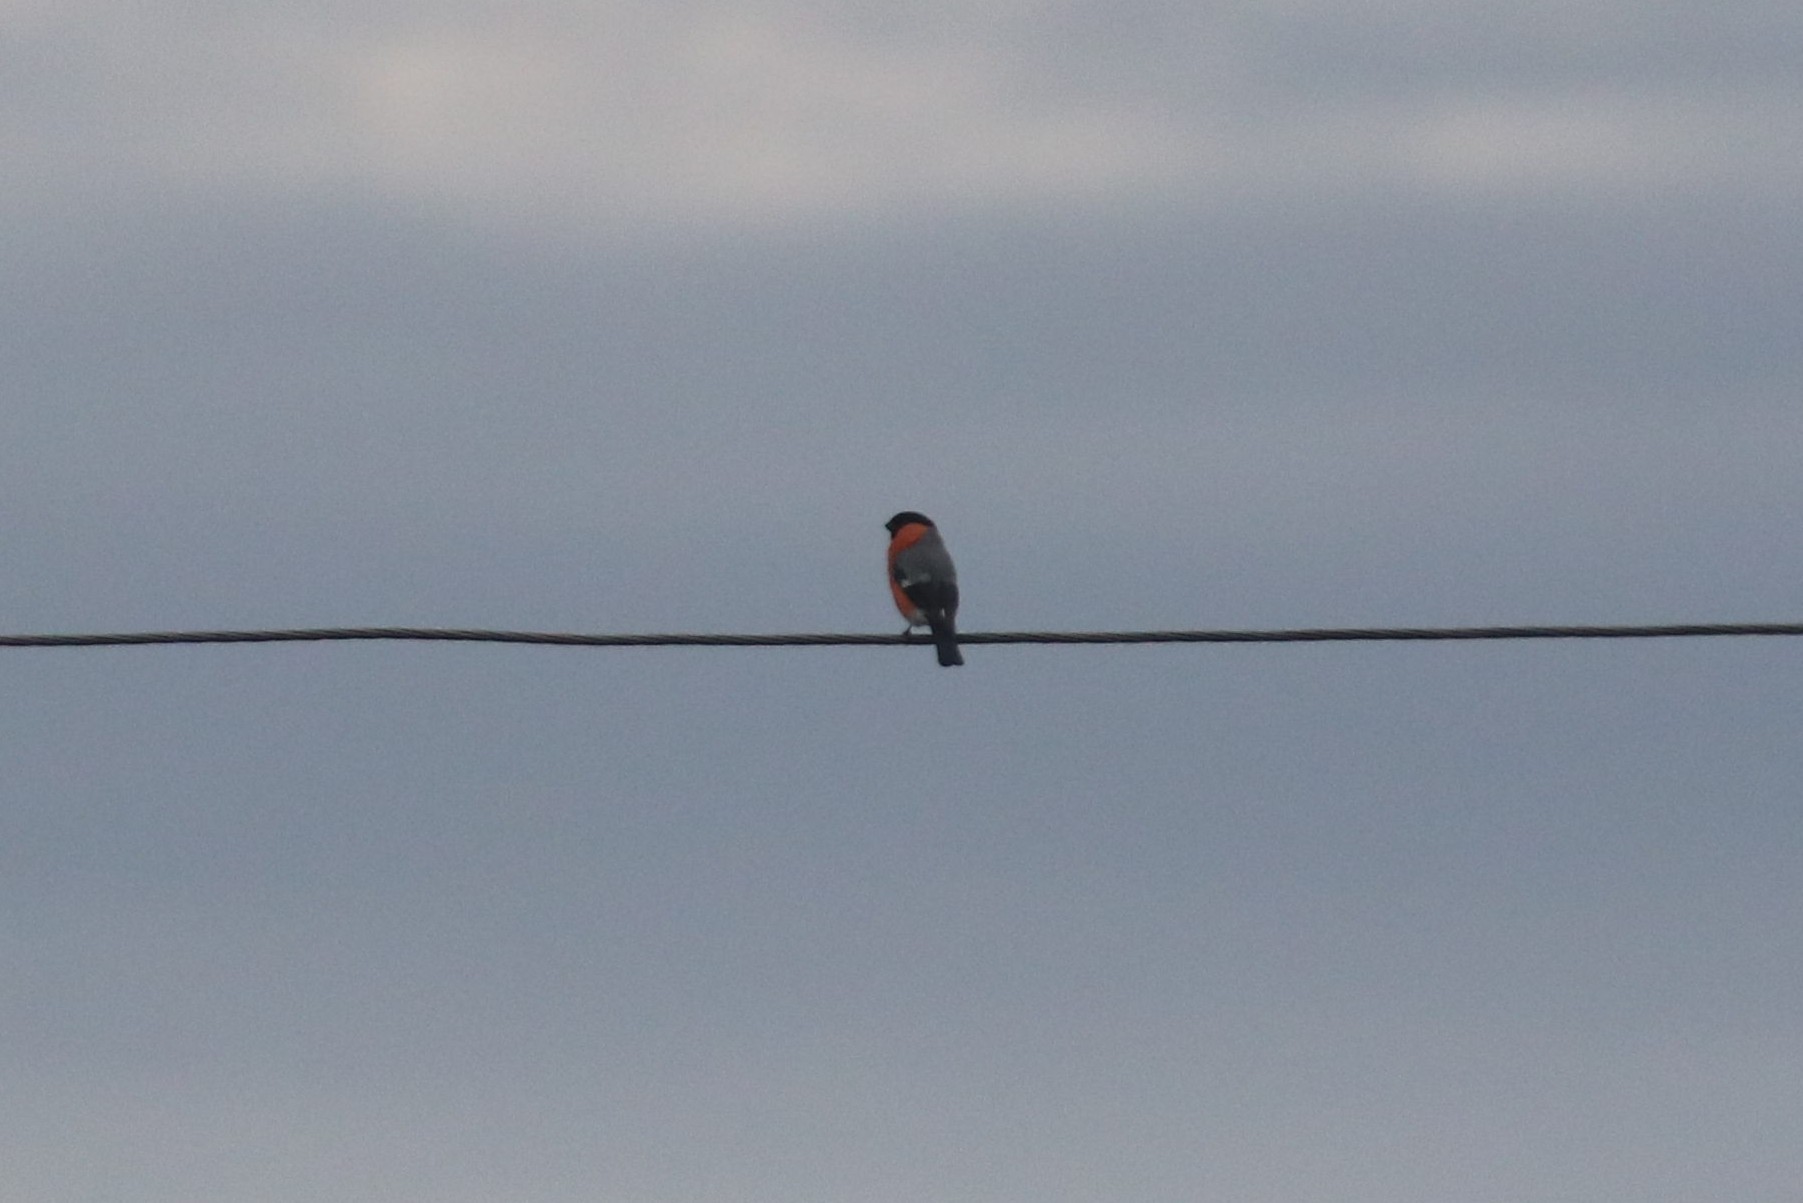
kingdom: Animalia
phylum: Chordata
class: Aves
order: Passeriformes
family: Fringillidae
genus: Pyrrhula
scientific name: Pyrrhula pyrrhula
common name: Eurasian bullfinch
